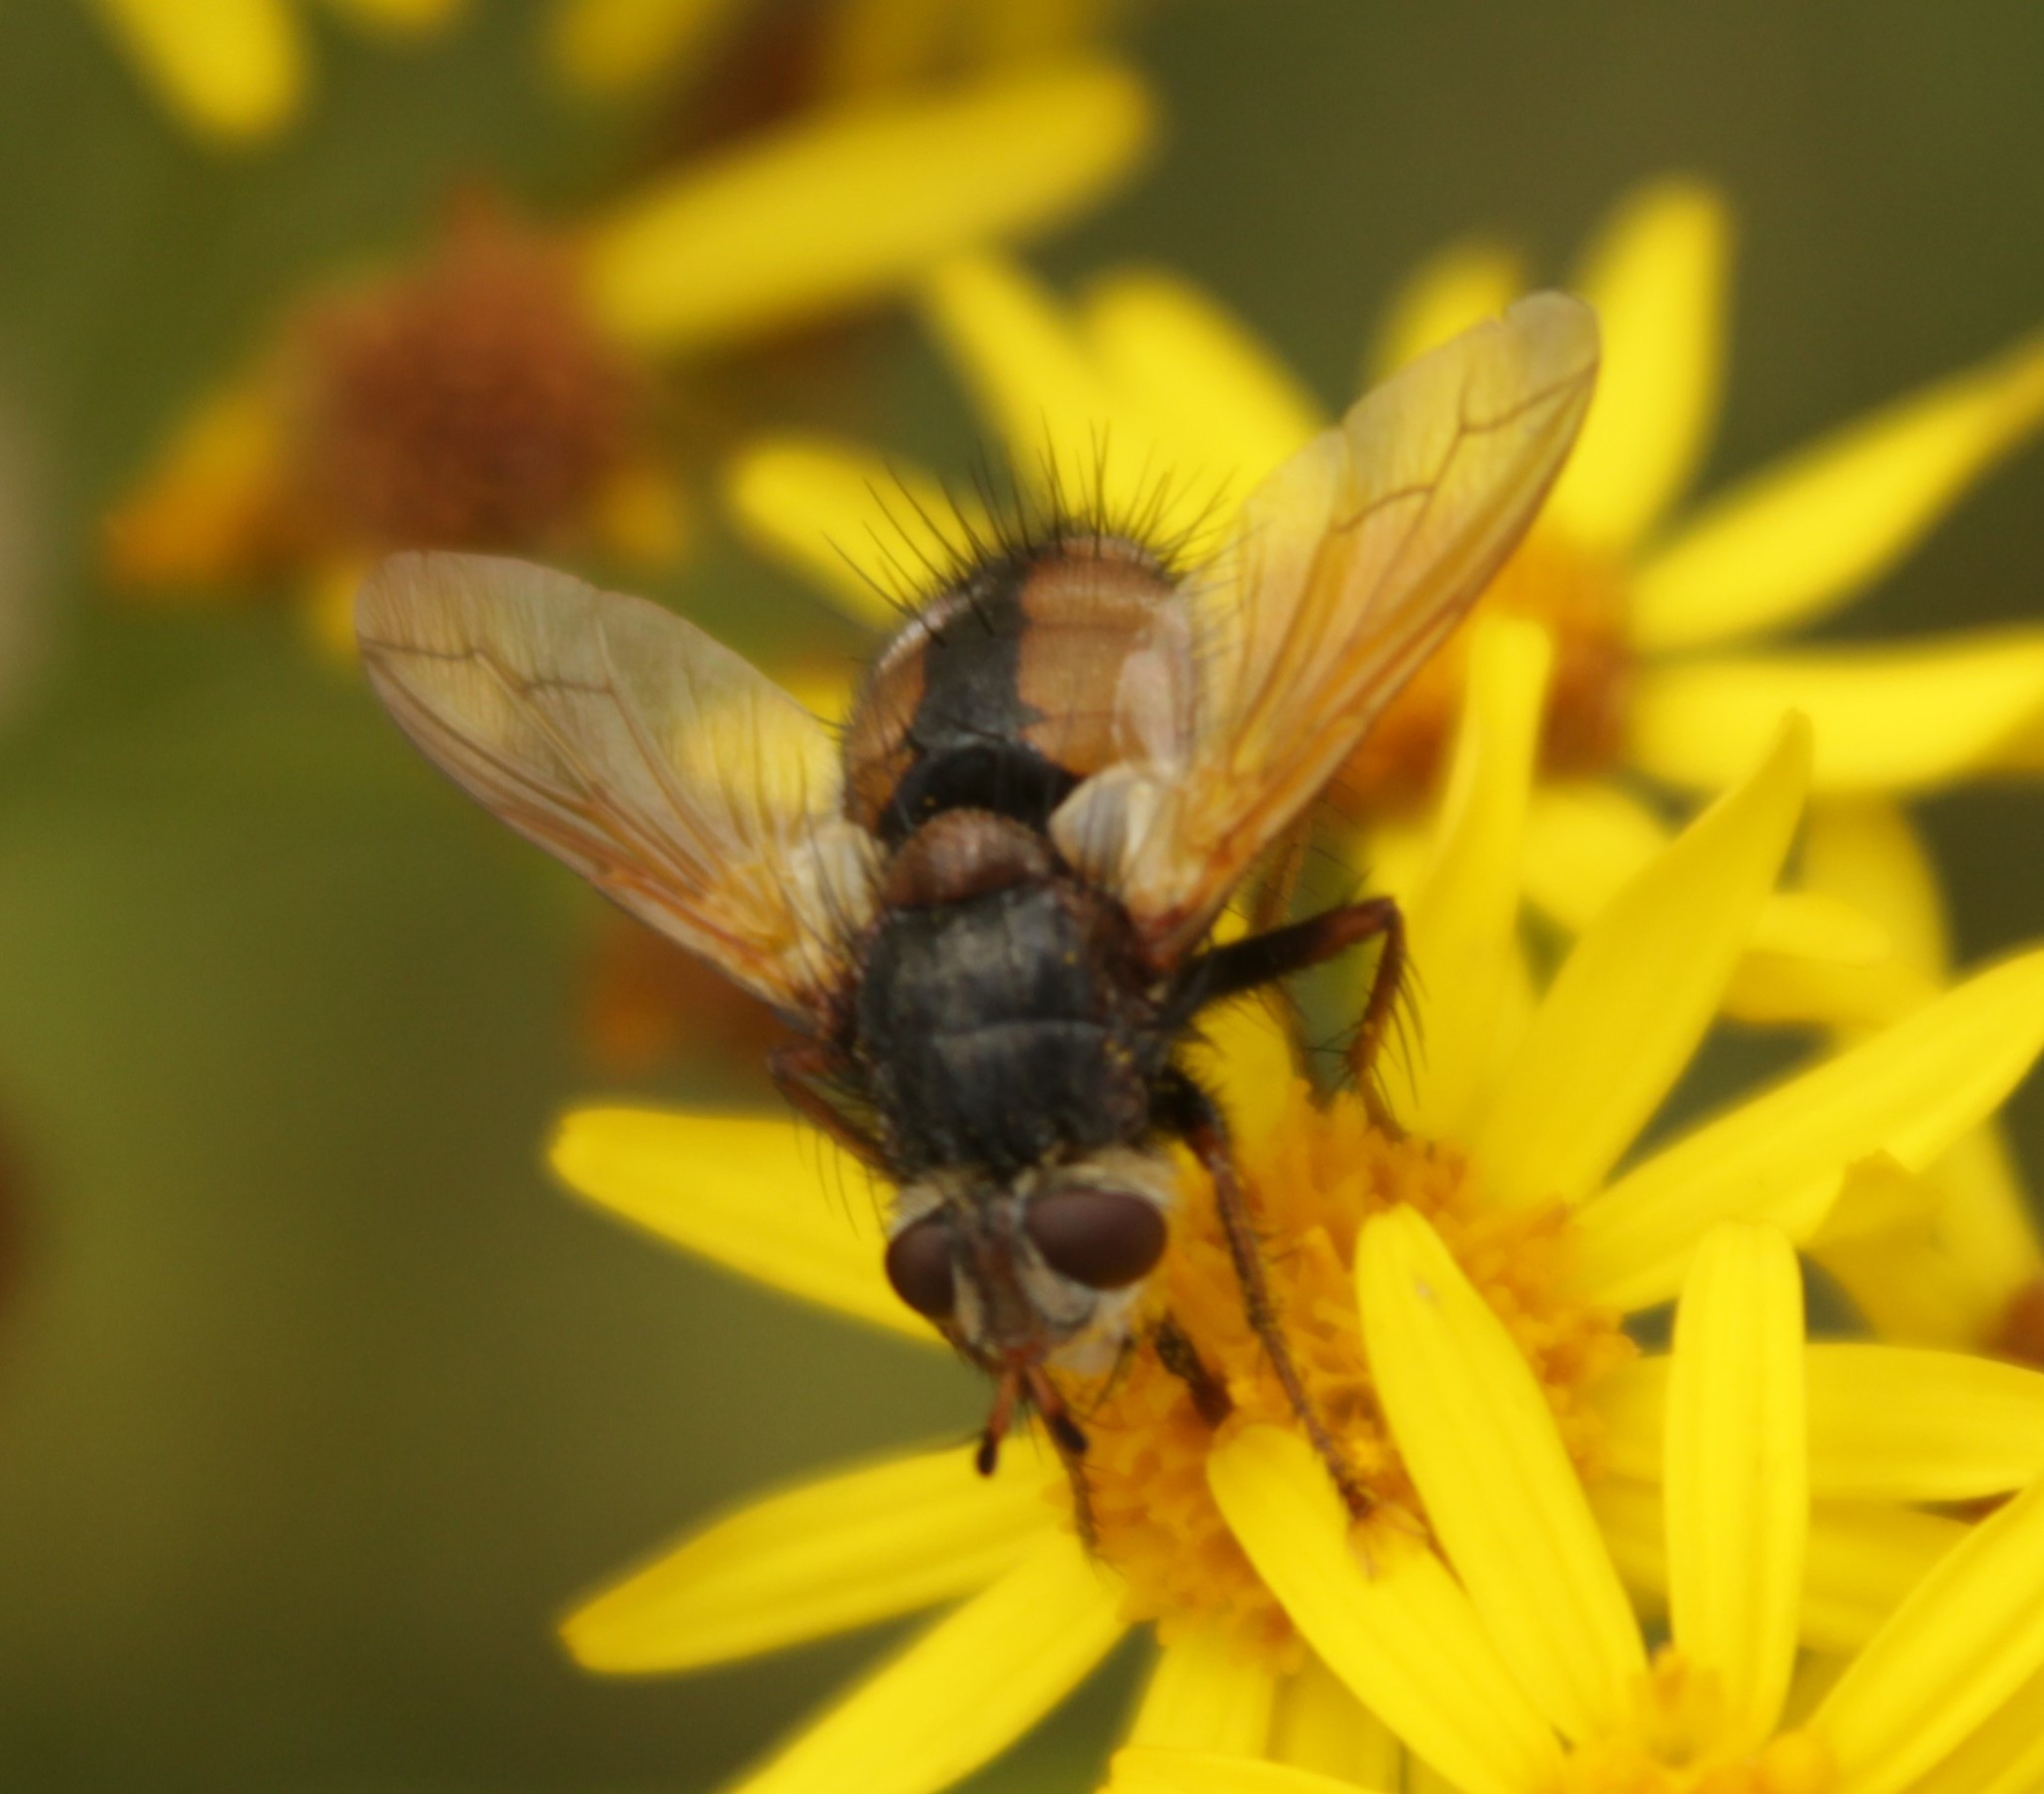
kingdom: Animalia
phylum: Arthropoda
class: Insecta
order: Diptera
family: Tachinidae
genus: Tachina
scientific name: Tachina fera
